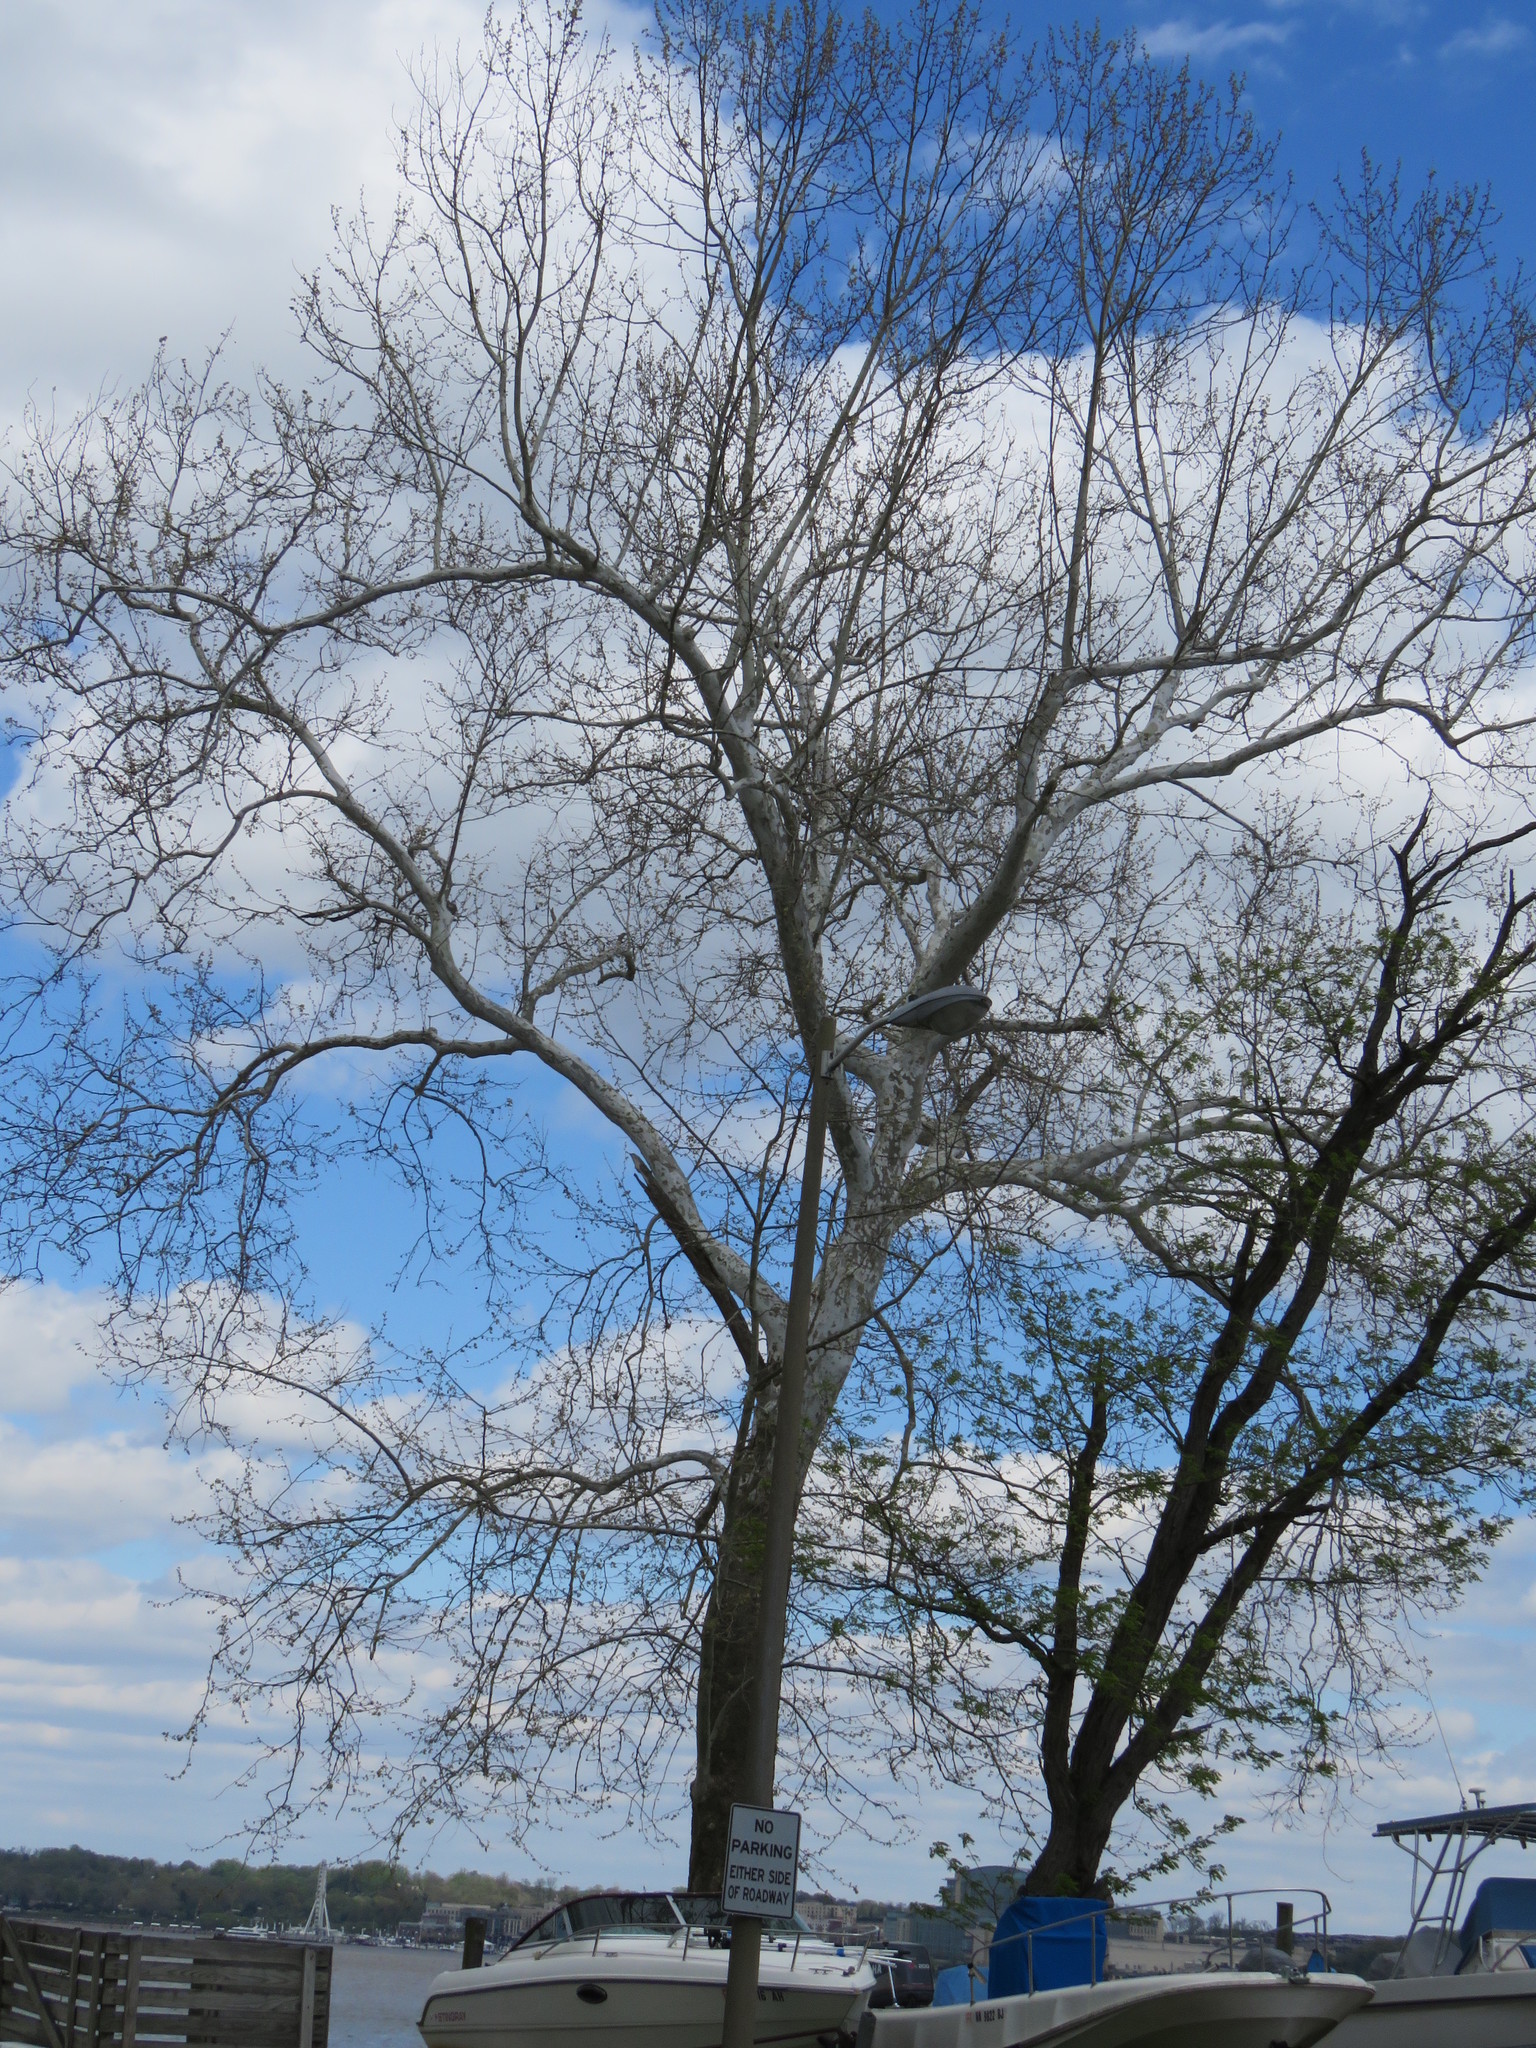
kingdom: Plantae
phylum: Tracheophyta
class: Magnoliopsida
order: Proteales
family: Platanaceae
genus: Platanus
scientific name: Platanus occidentalis
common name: American sycamore
